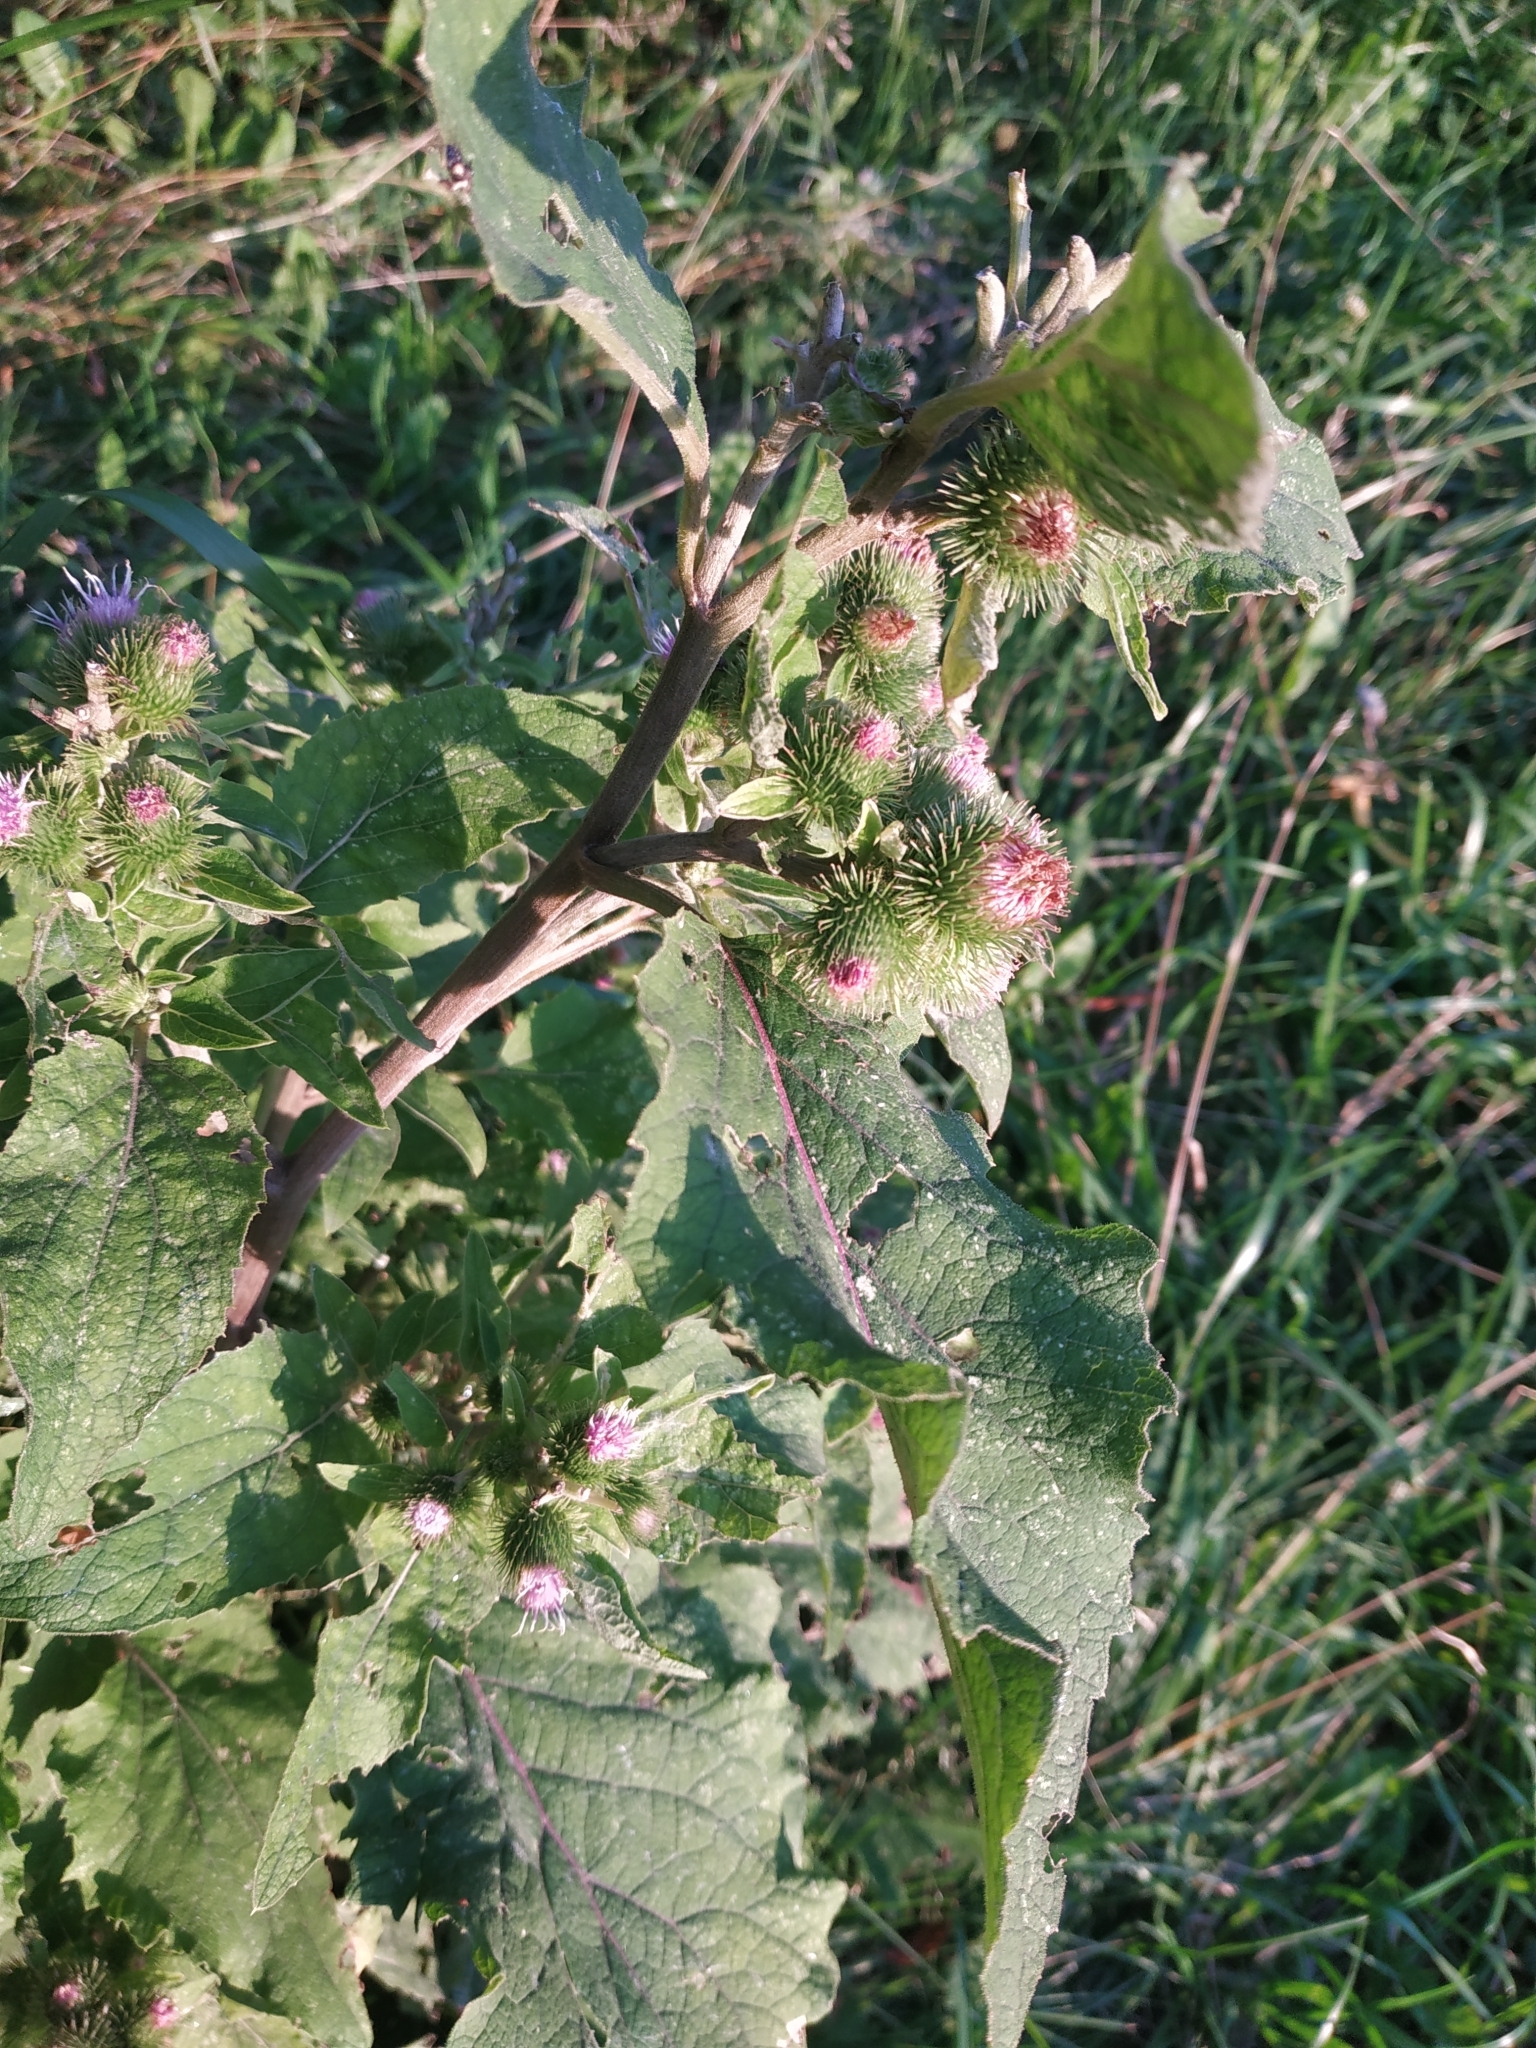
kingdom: Plantae
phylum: Tracheophyta
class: Magnoliopsida
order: Asterales
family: Asteraceae
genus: Arctium
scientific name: Arctium minus
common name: Lesser burdock
